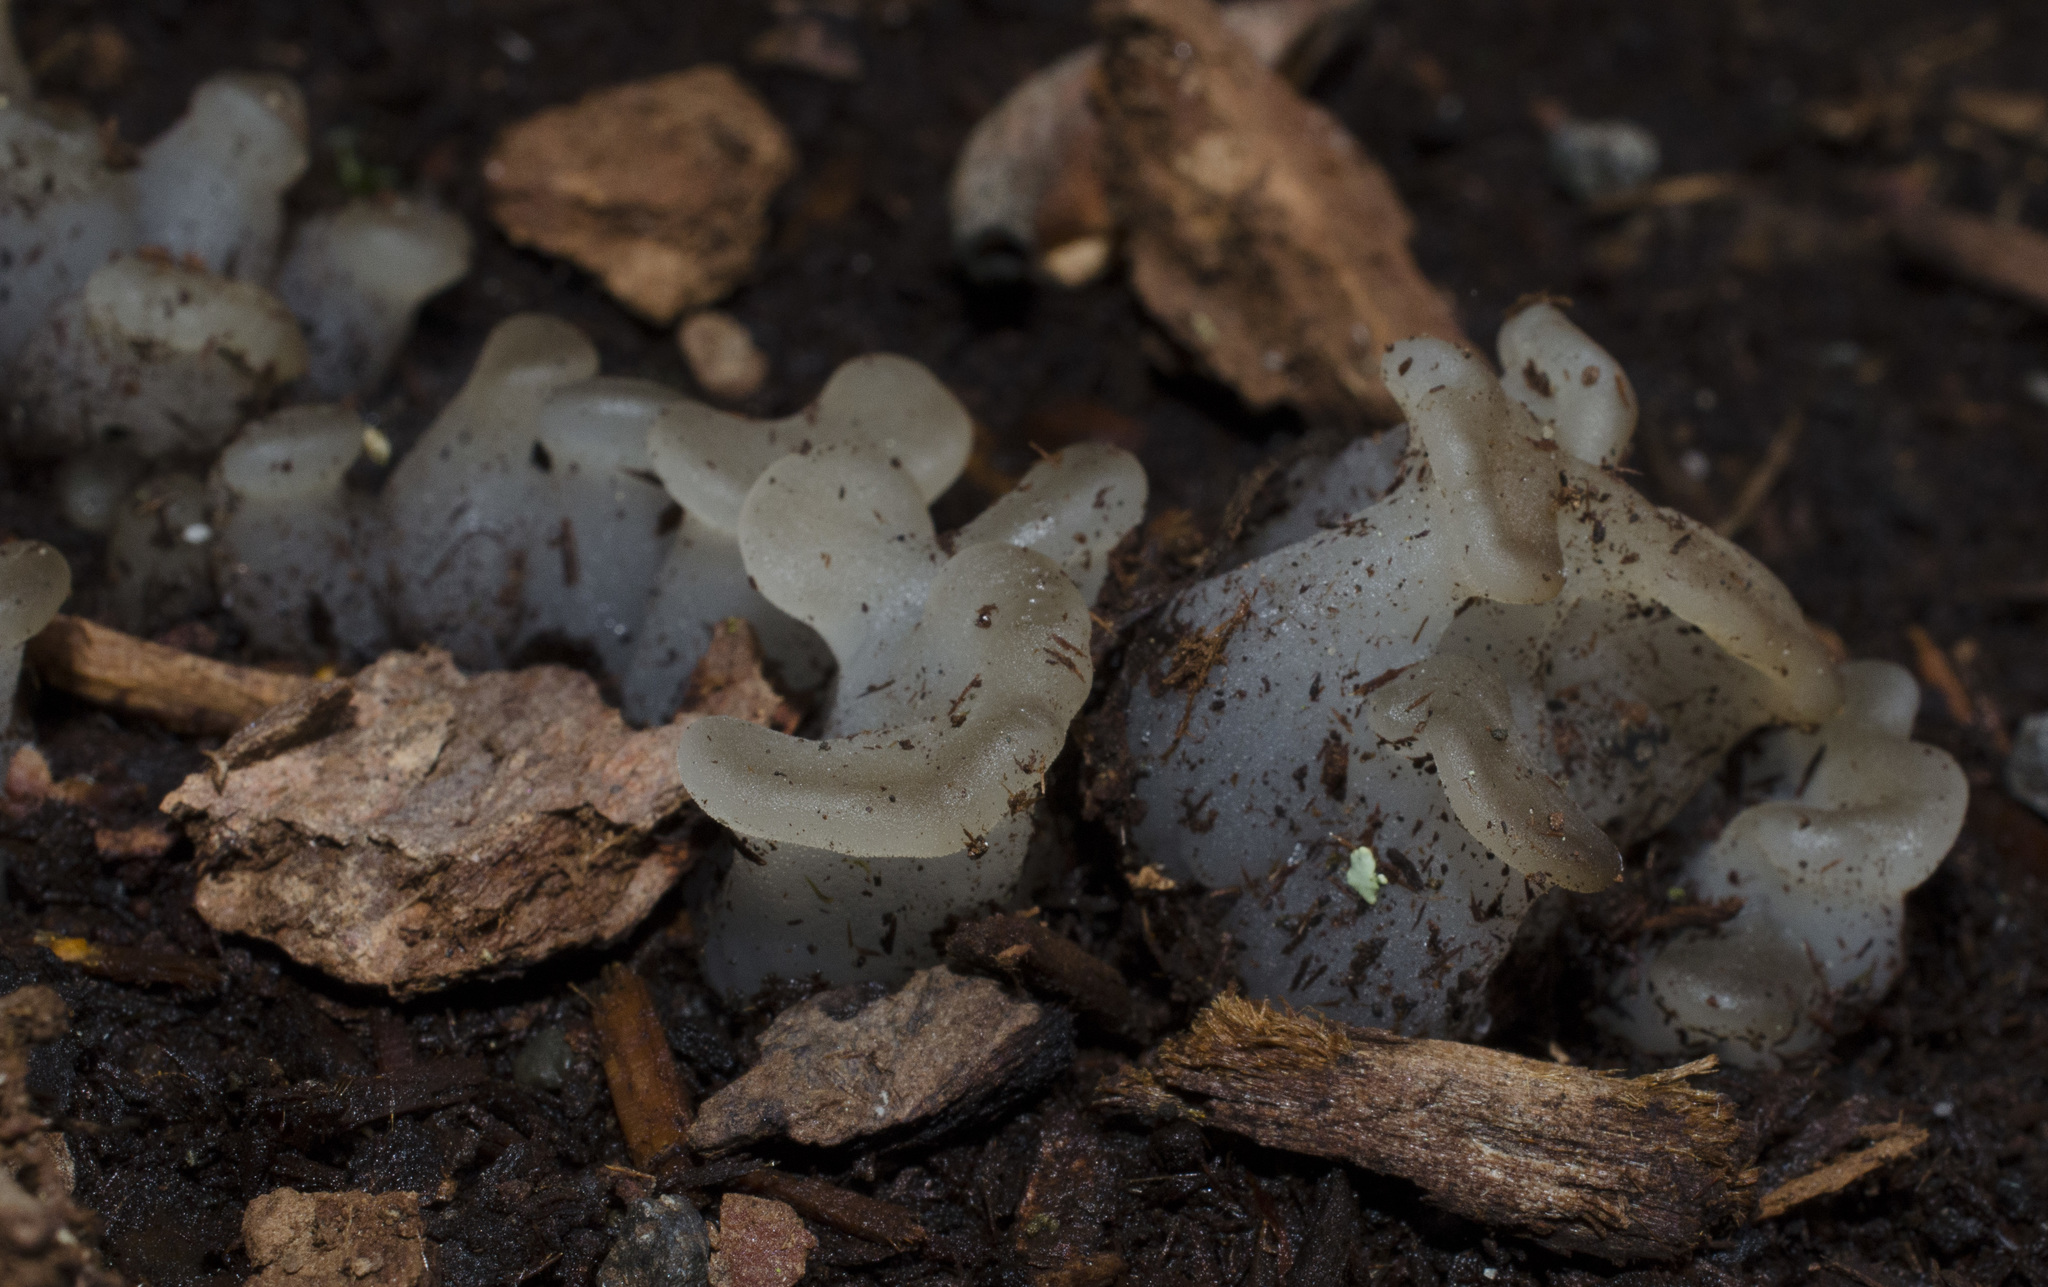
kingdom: Fungi
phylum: Basidiomycota
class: Agaricomycetes
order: Auriculariales
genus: Pseudohydnum
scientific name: Pseudohydnum gelatinosum
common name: Jelly tongue
